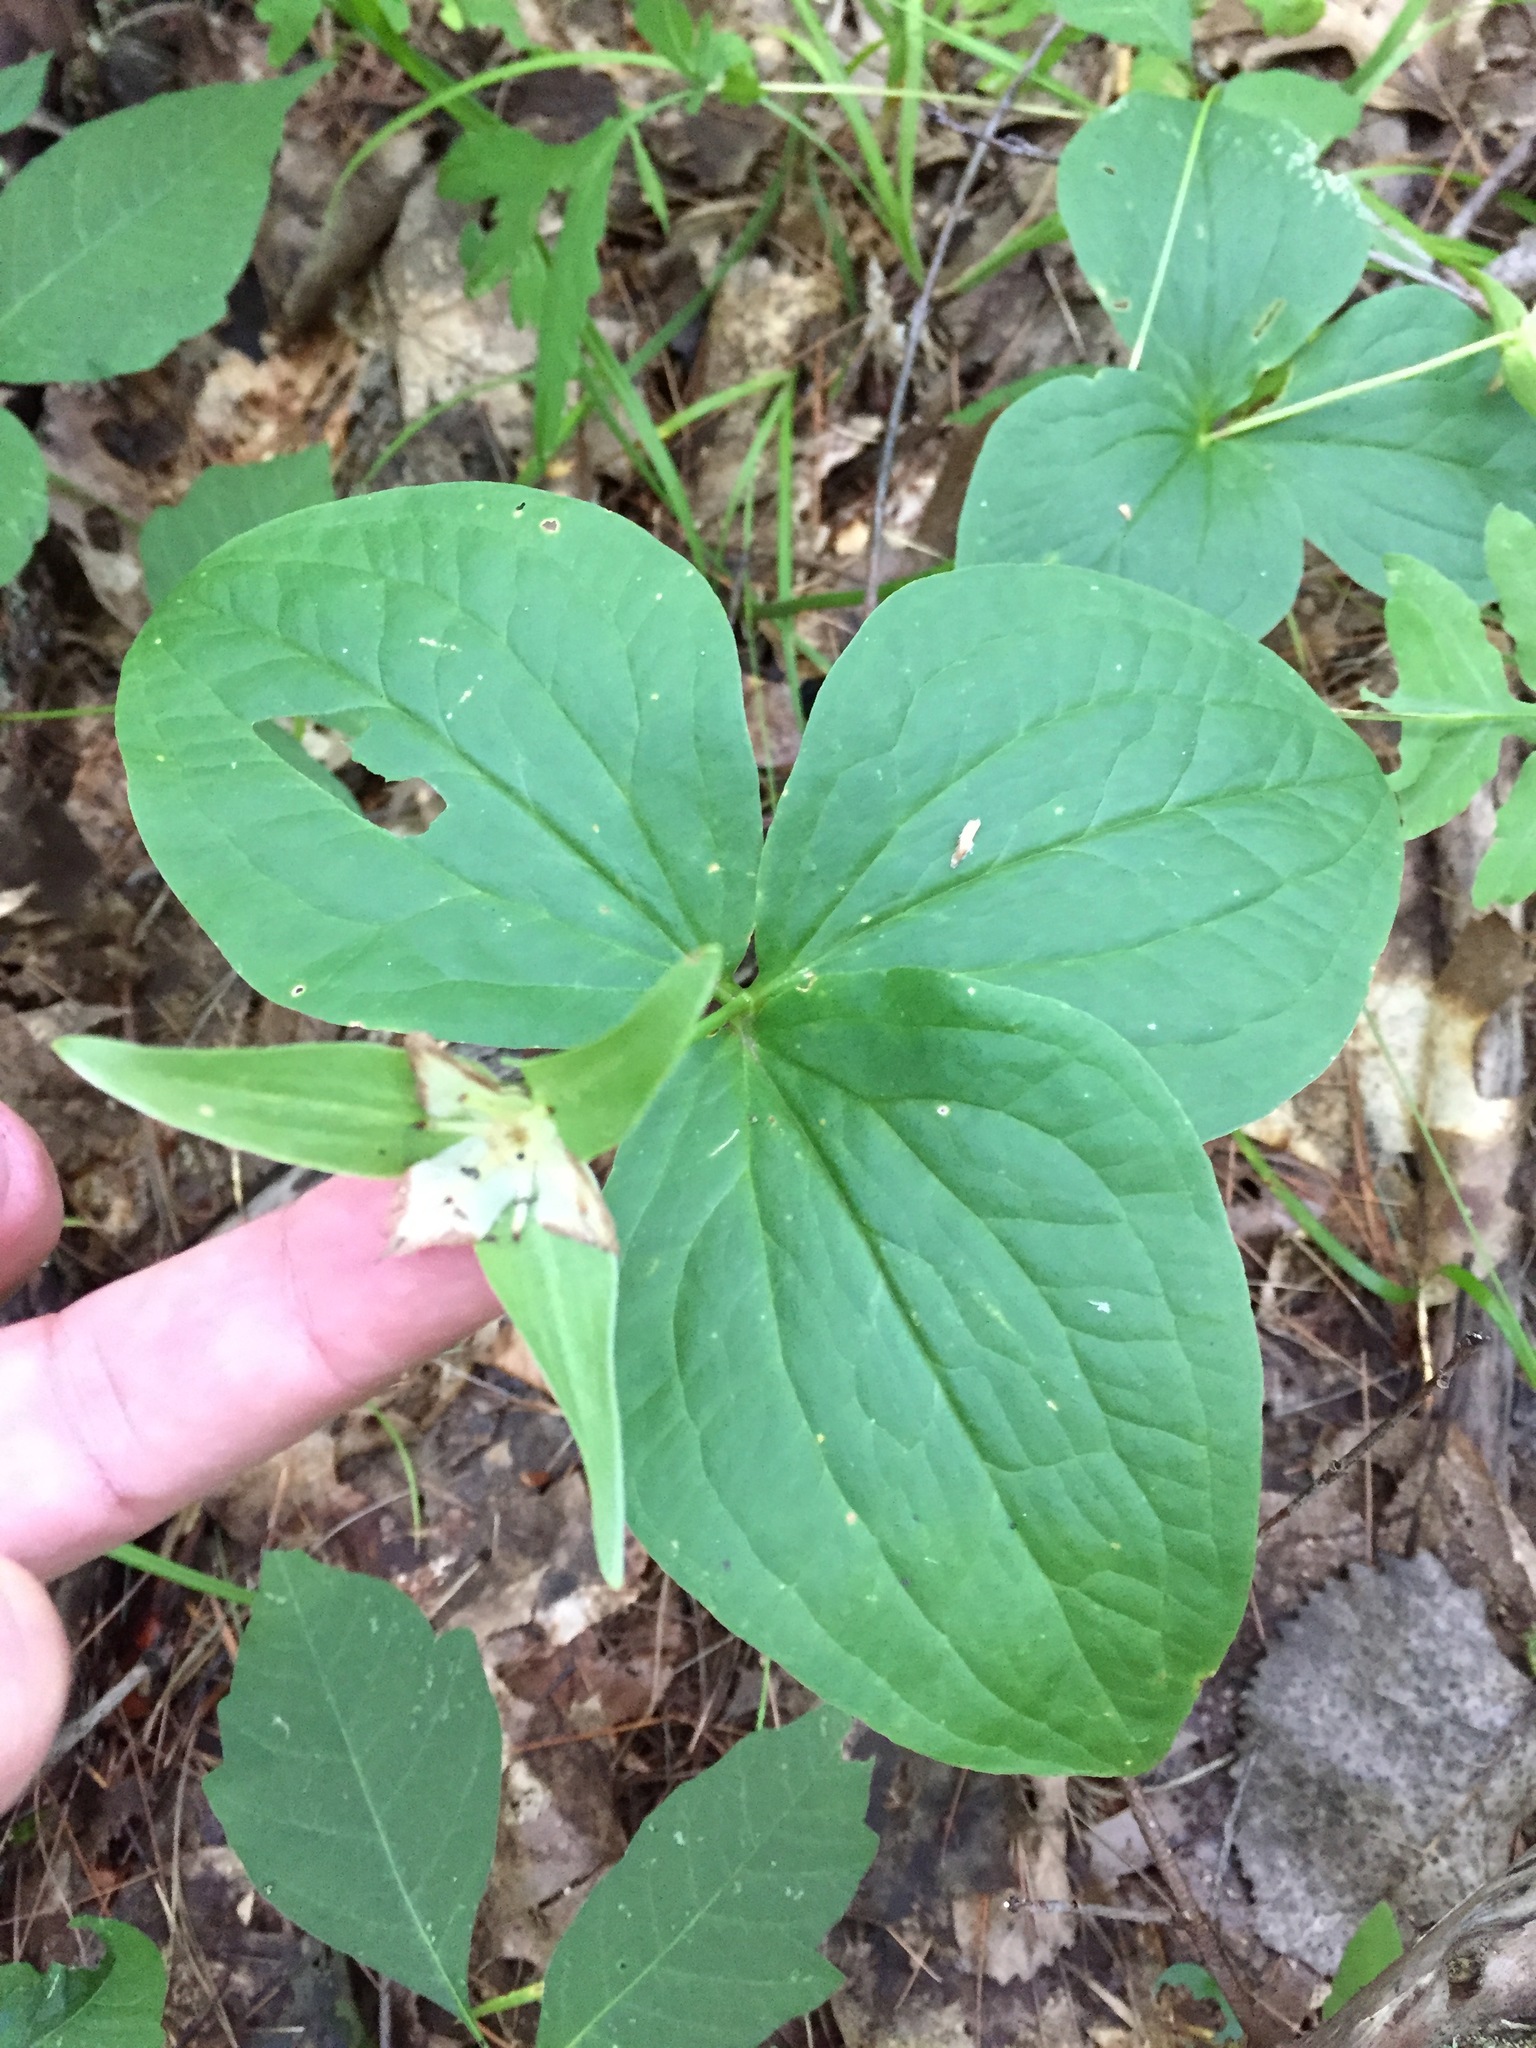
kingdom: Plantae
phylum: Tracheophyta
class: Liliopsida
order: Liliales
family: Melanthiaceae
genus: Trillium
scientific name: Trillium grandiflorum
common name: Great white trillium
